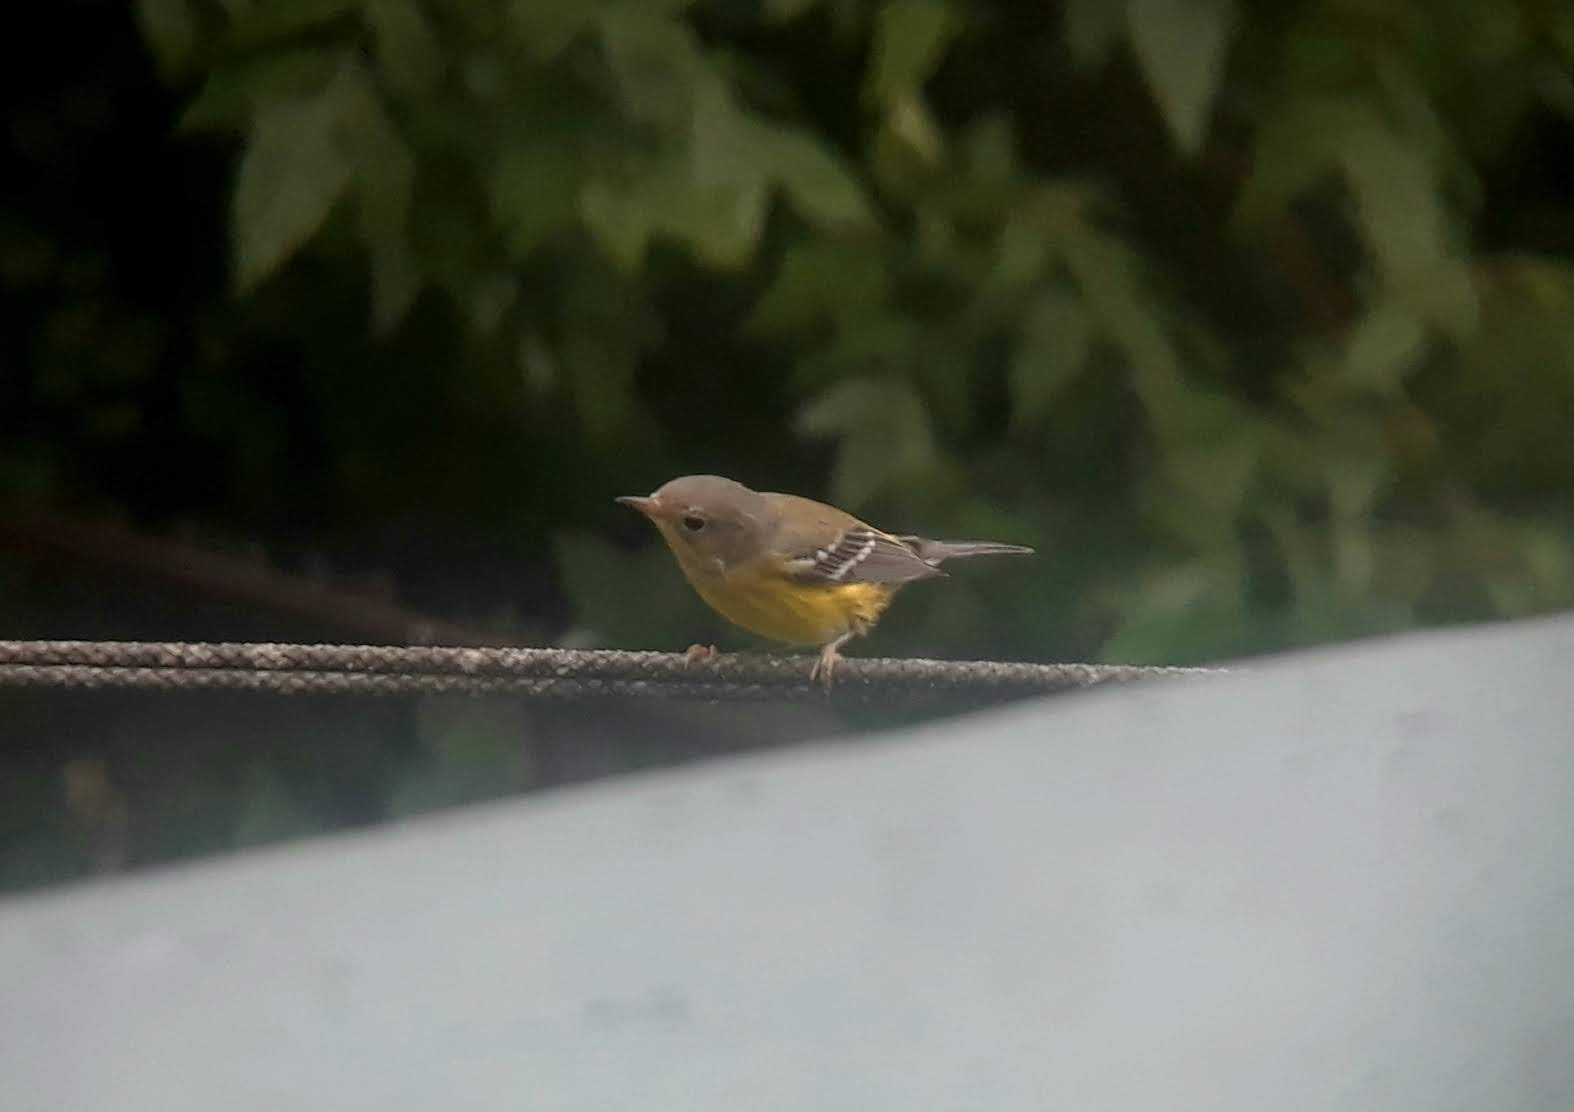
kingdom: Animalia
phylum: Chordata
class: Aves
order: Passeriformes
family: Parulidae
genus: Setophaga
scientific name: Setophaga magnolia
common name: Magnolia warbler
